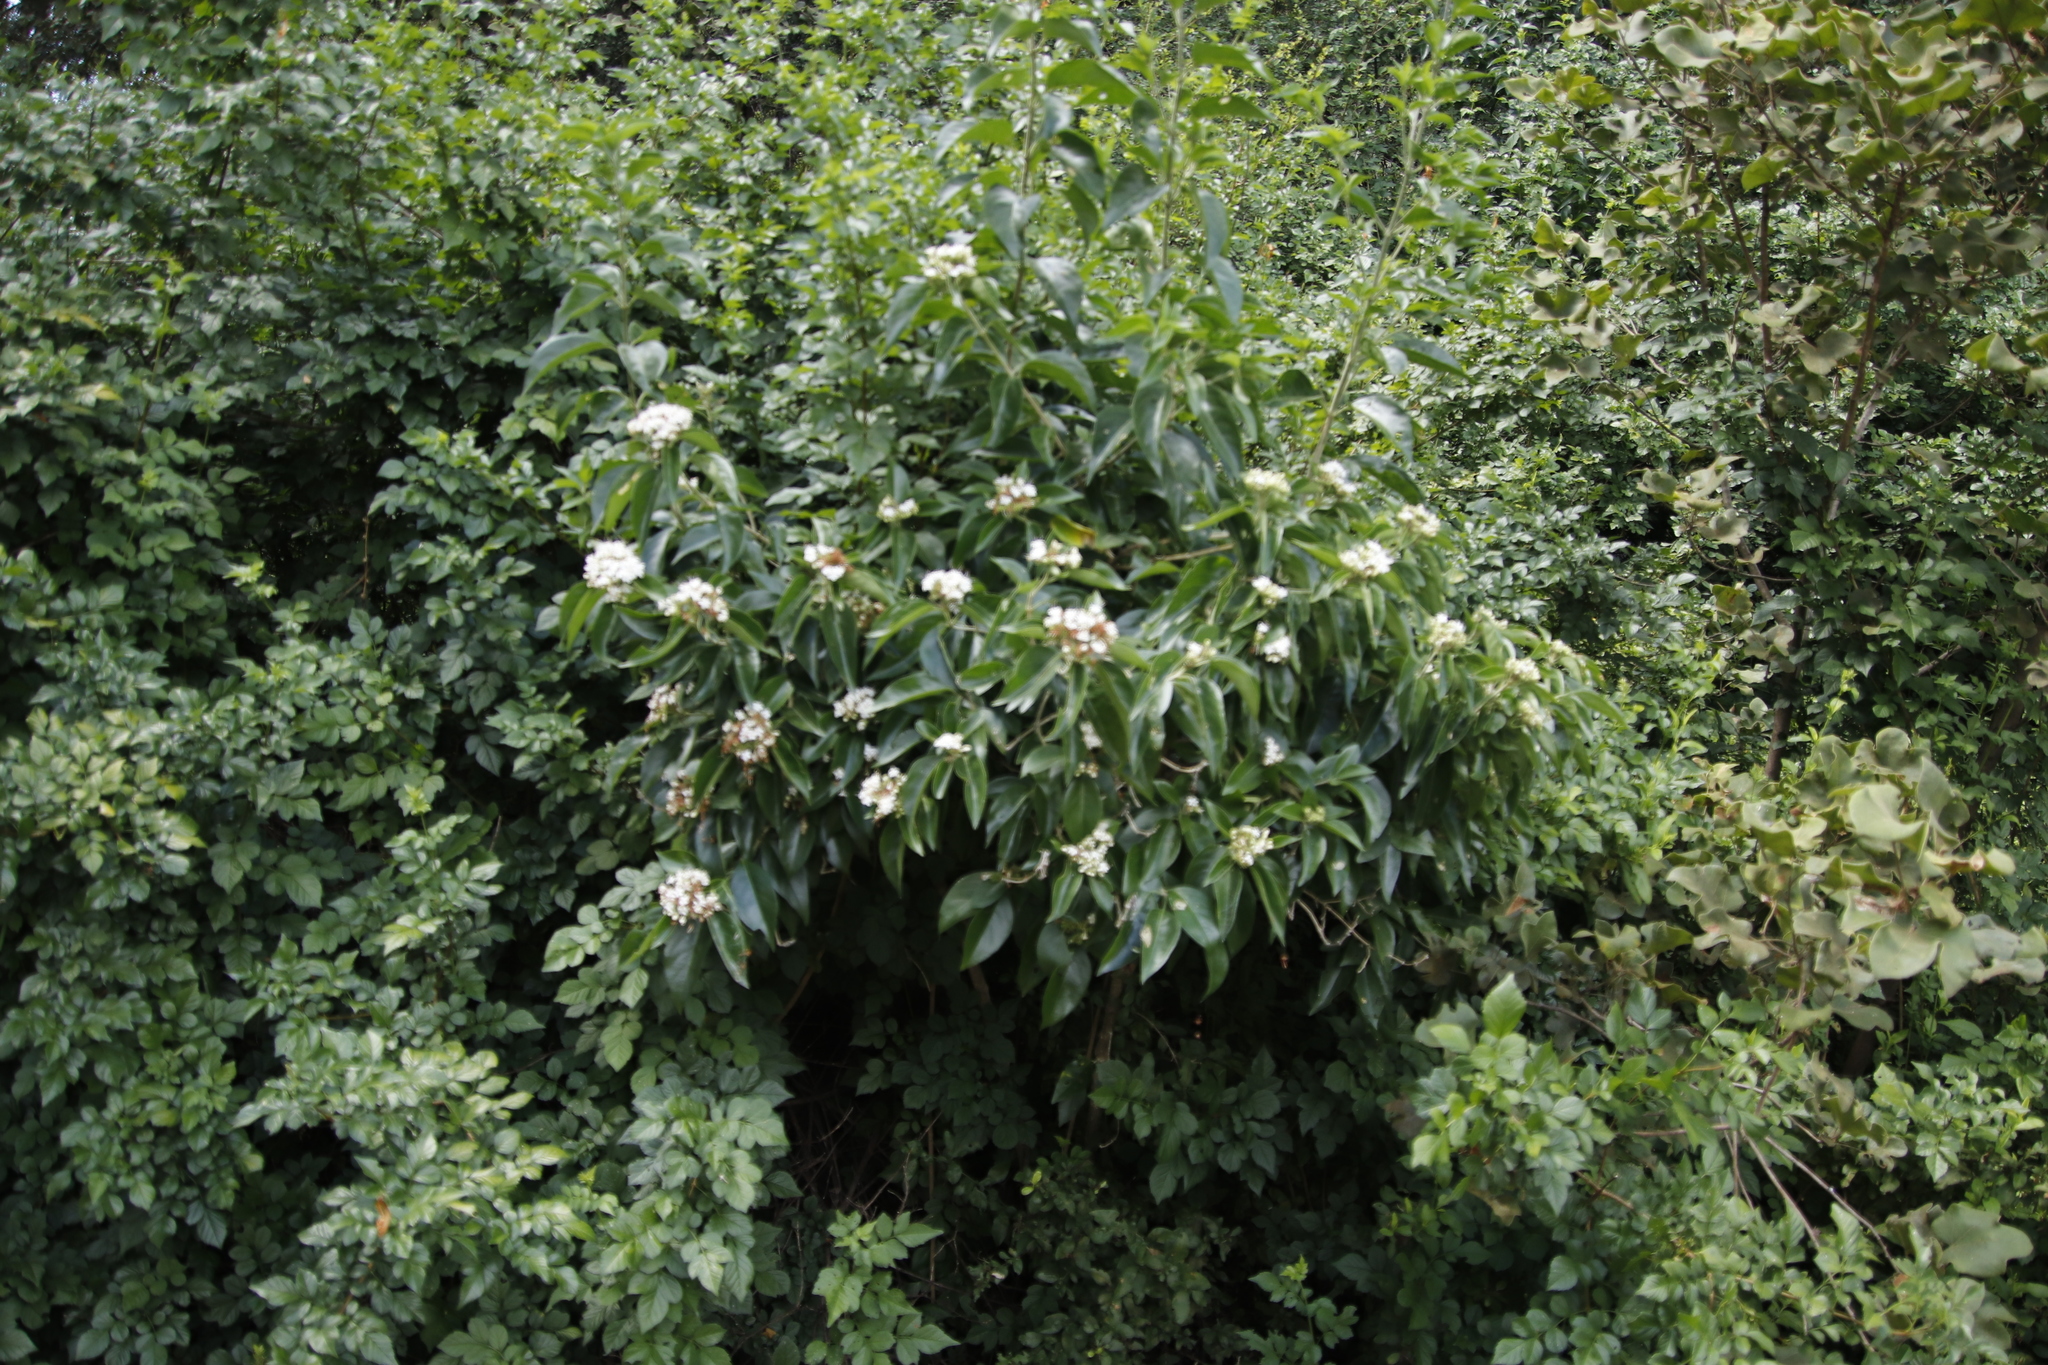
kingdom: Plantae
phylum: Tracheophyta
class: Magnoliopsida
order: Lamiales
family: Lamiaceae
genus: Volkameria
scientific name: Volkameria glabra
